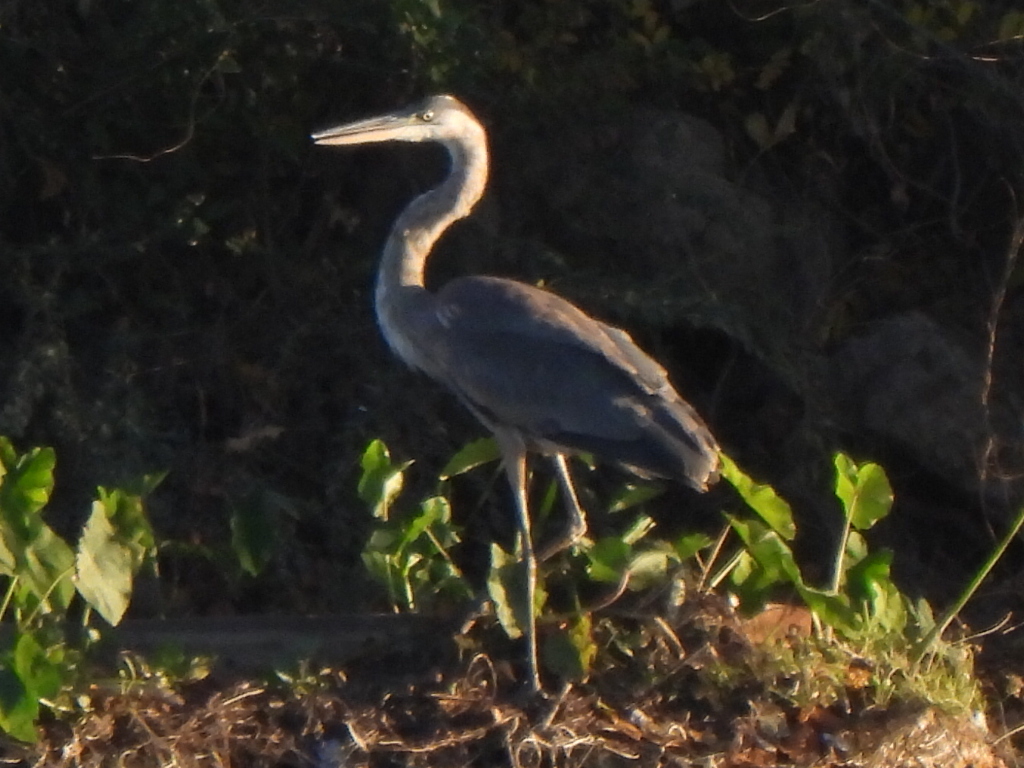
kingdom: Animalia
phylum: Chordata
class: Aves
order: Pelecaniformes
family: Ardeidae
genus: Ardea
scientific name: Ardea herodias
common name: Great blue heron
